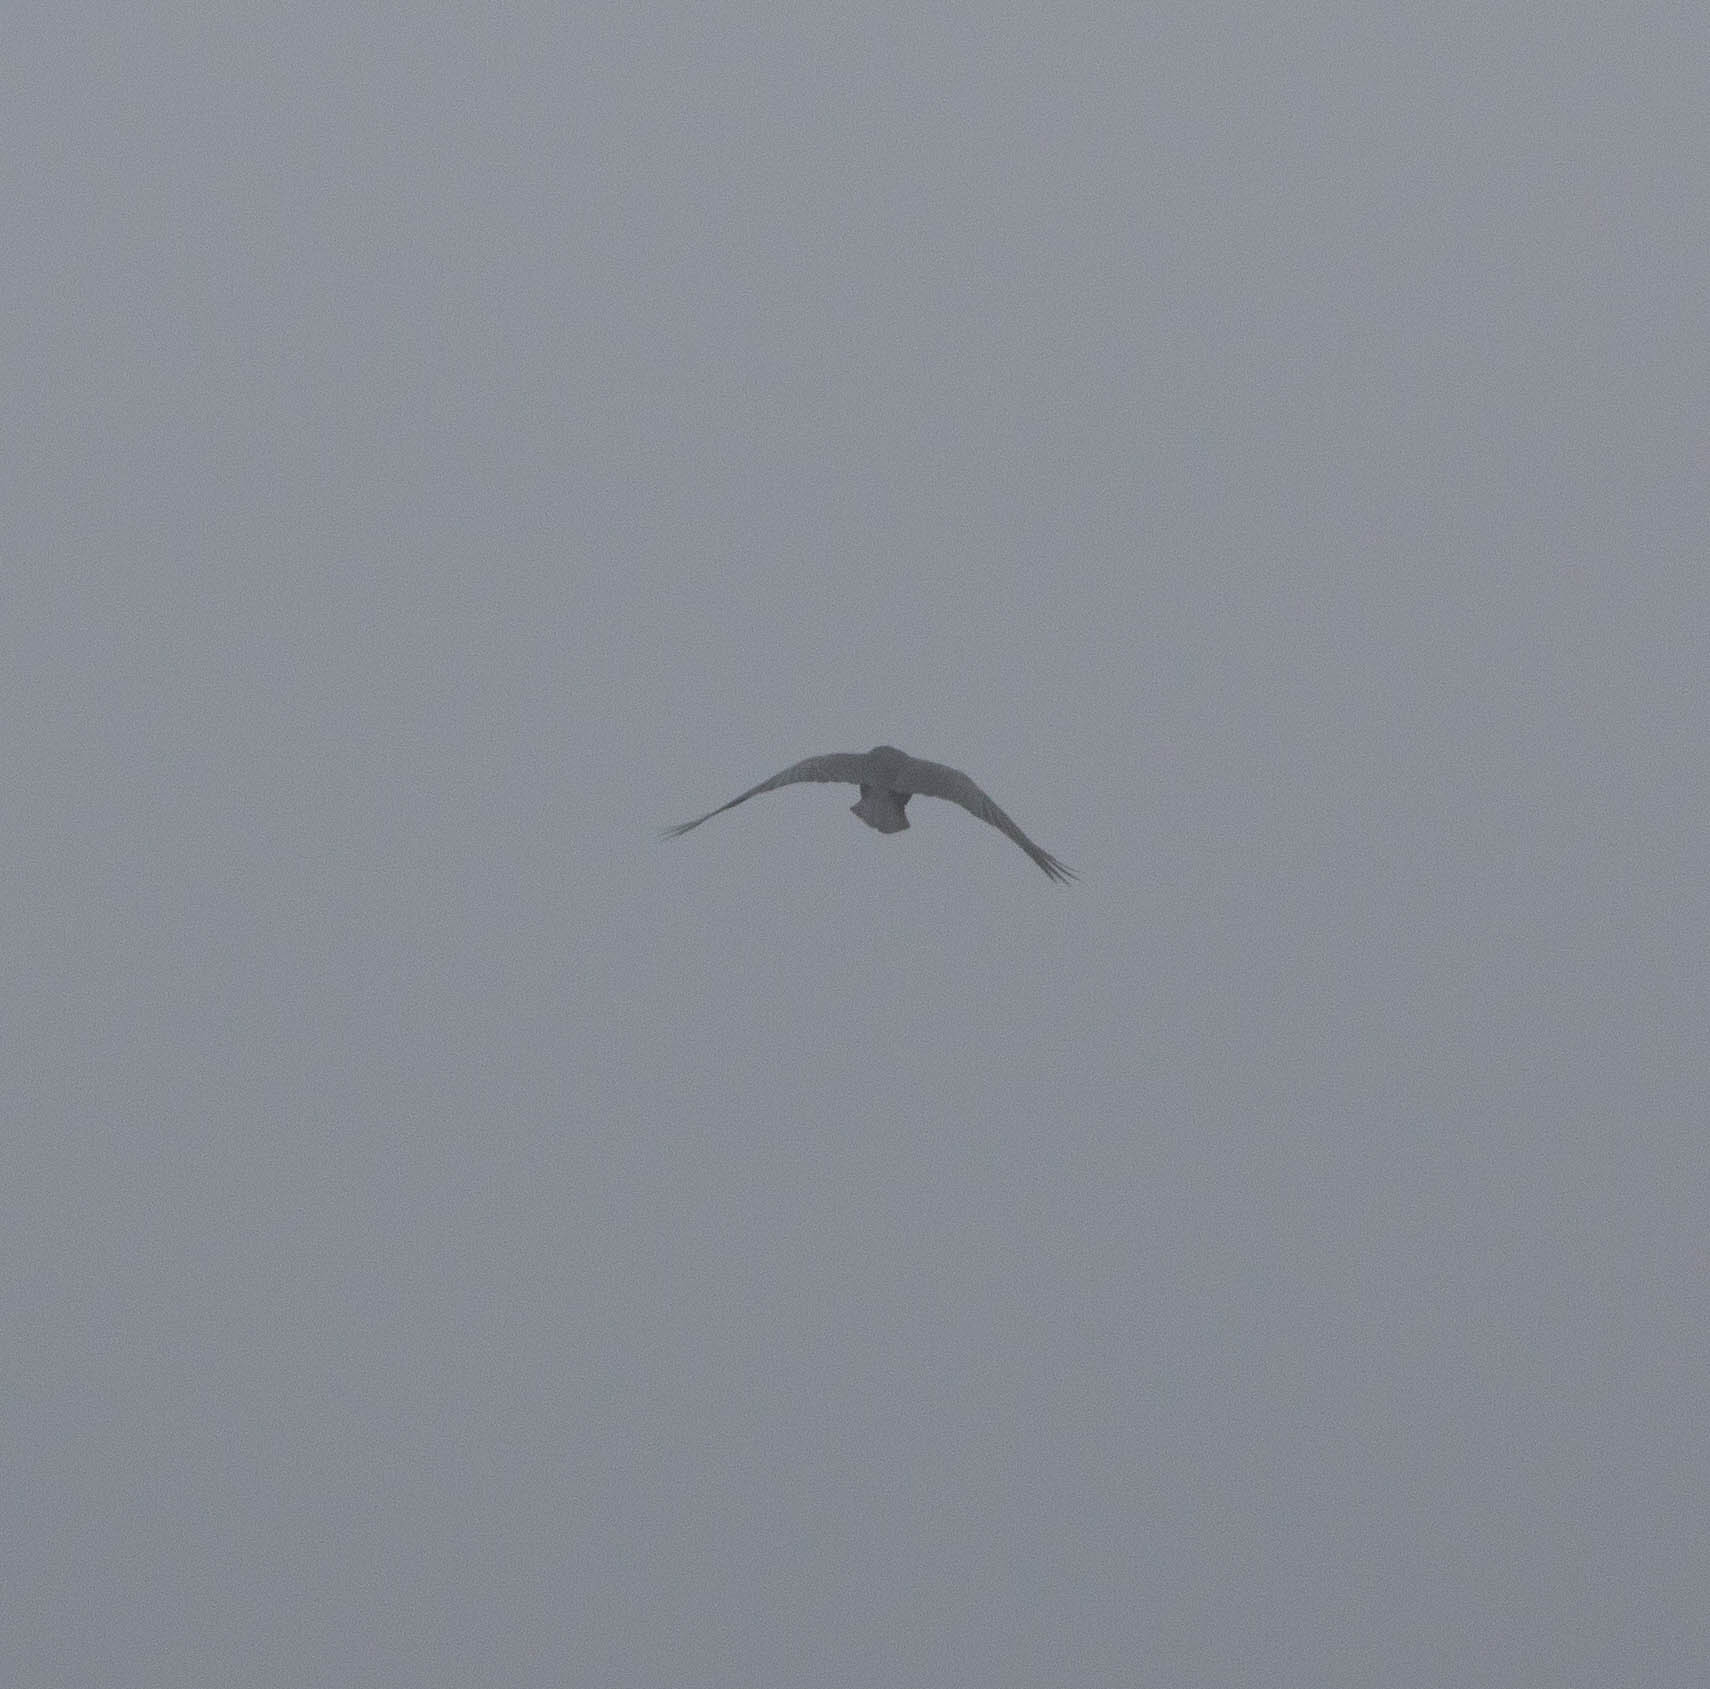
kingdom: Animalia
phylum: Chordata
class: Aves
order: Passeriformes
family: Corvidae
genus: Corvus
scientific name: Corvus corax
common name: Common raven
